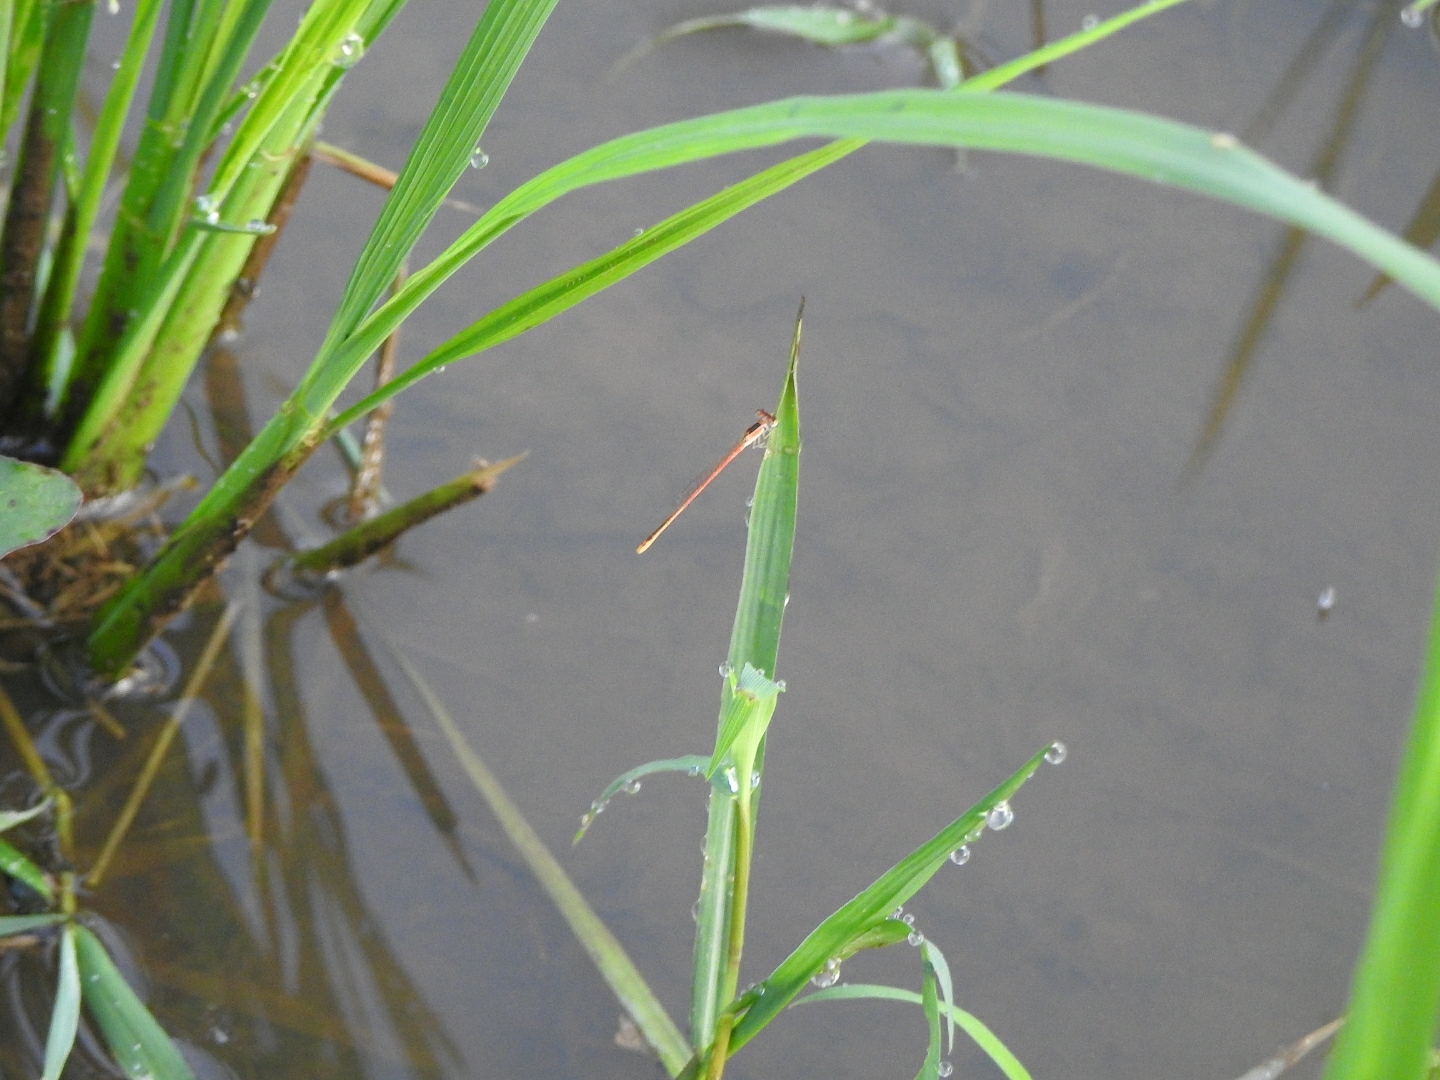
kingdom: Animalia
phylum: Arthropoda
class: Insecta
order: Odonata
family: Coenagrionidae
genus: Agriocnemis
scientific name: Agriocnemis pygmaea
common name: Pygmy wisp
